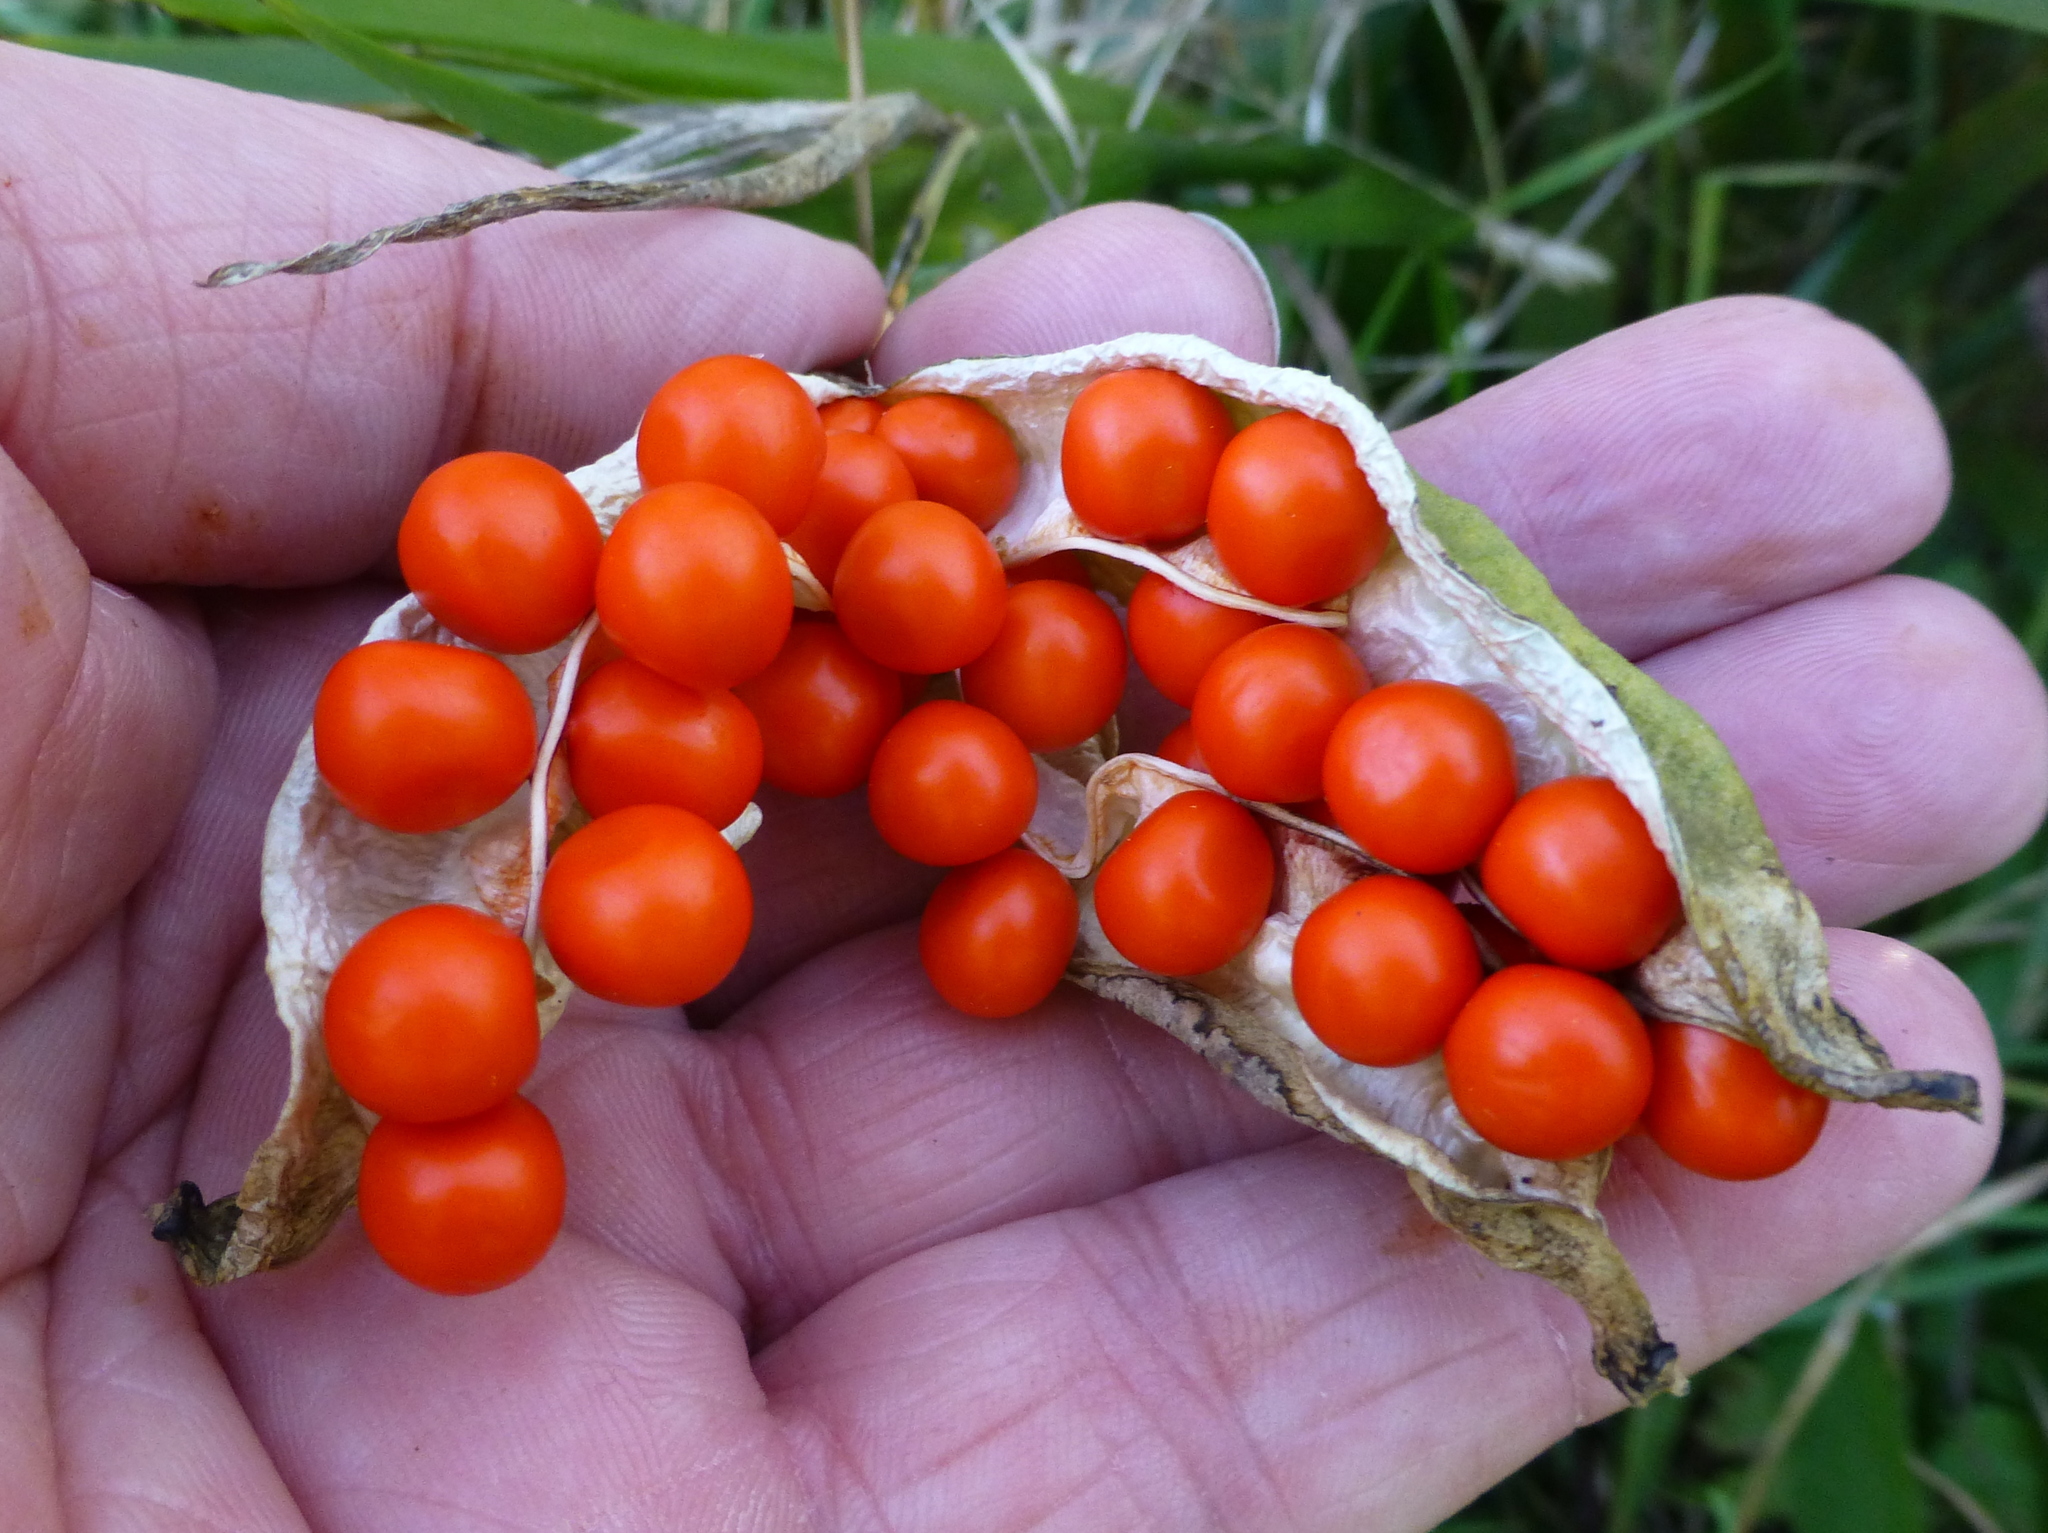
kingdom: Plantae
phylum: Tracheophyta
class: Liliopsida
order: Asparagales
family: Iridaceae
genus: Iris
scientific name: Iris foetidissima
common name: Stinking iris
